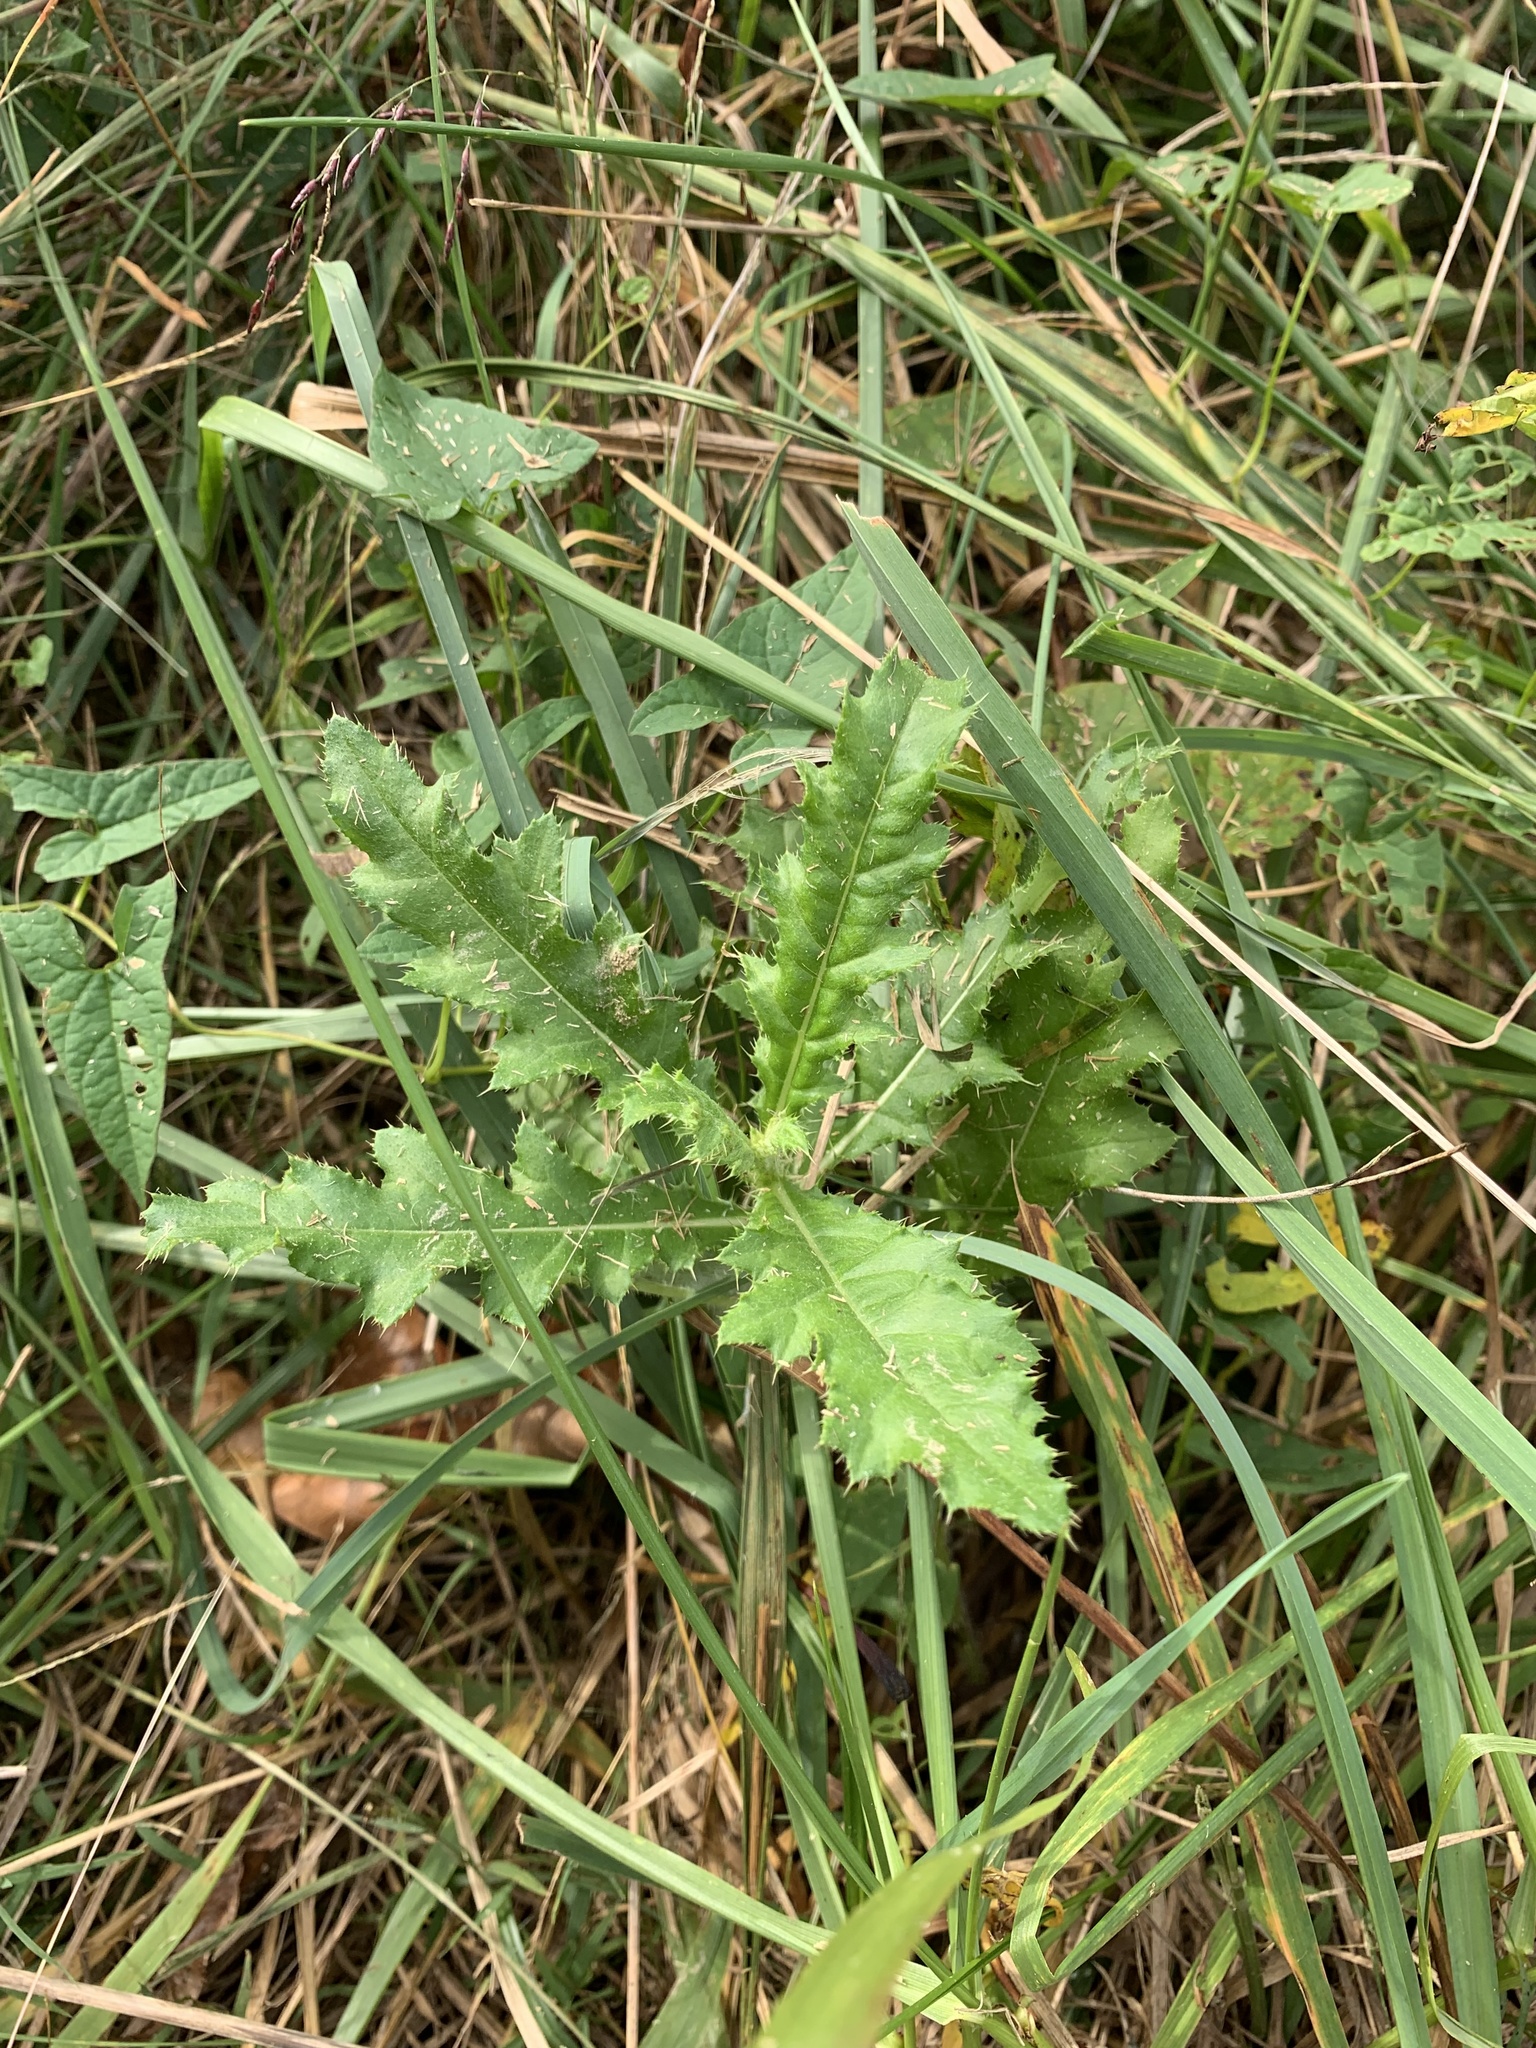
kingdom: Plantae
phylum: Tracheophyta
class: Magnoliopsida
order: Asterales
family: Asteraceae
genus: Cirsium
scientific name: Cirsium arvense
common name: Creeping thistle
